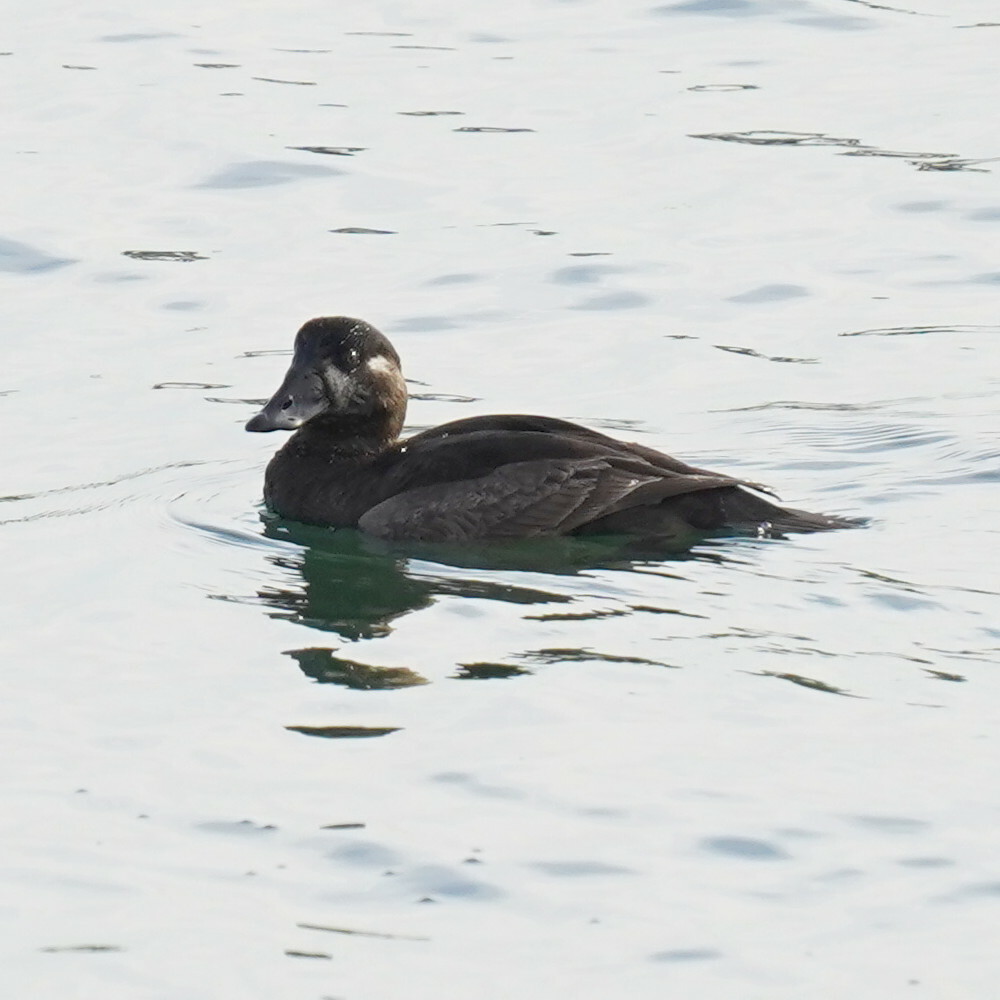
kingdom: Animalia
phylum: Chordata
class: Aves
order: Anseriformes
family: Anatidae
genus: Melanitta
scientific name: Melanitta perspicillata
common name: Surf scoter
